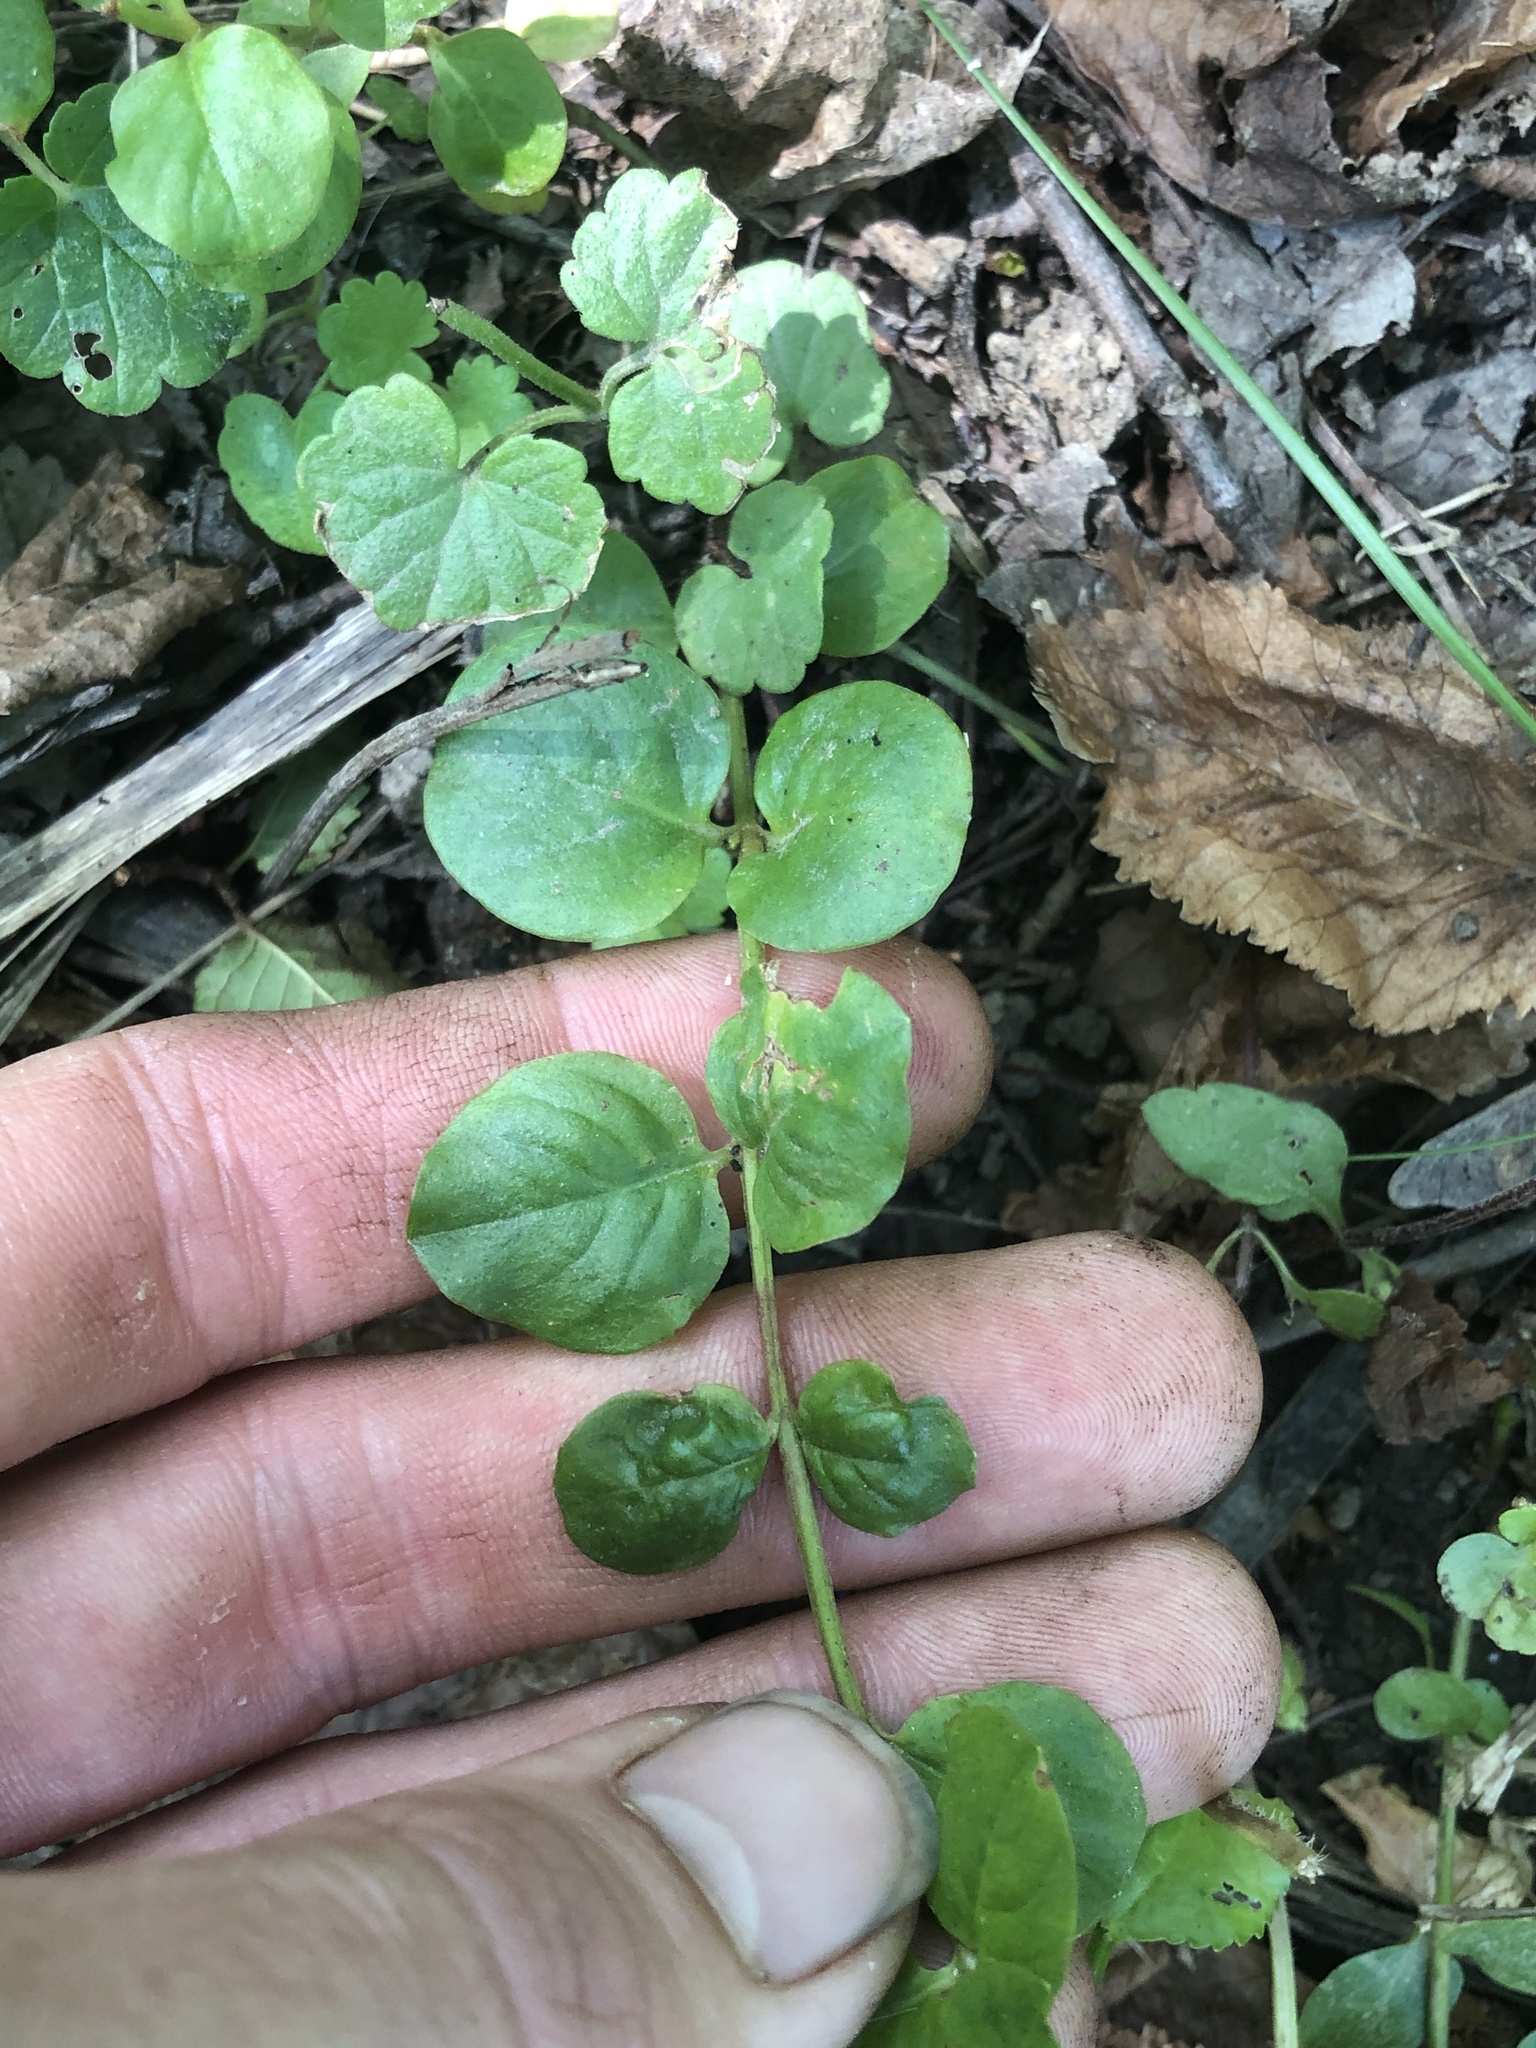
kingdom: Plantae
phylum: Tracheophyta
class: Magnoliopsida
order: Ericales
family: Primulaceae
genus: Lysimachia
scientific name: Lysimachia nummularia
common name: Moneywort
